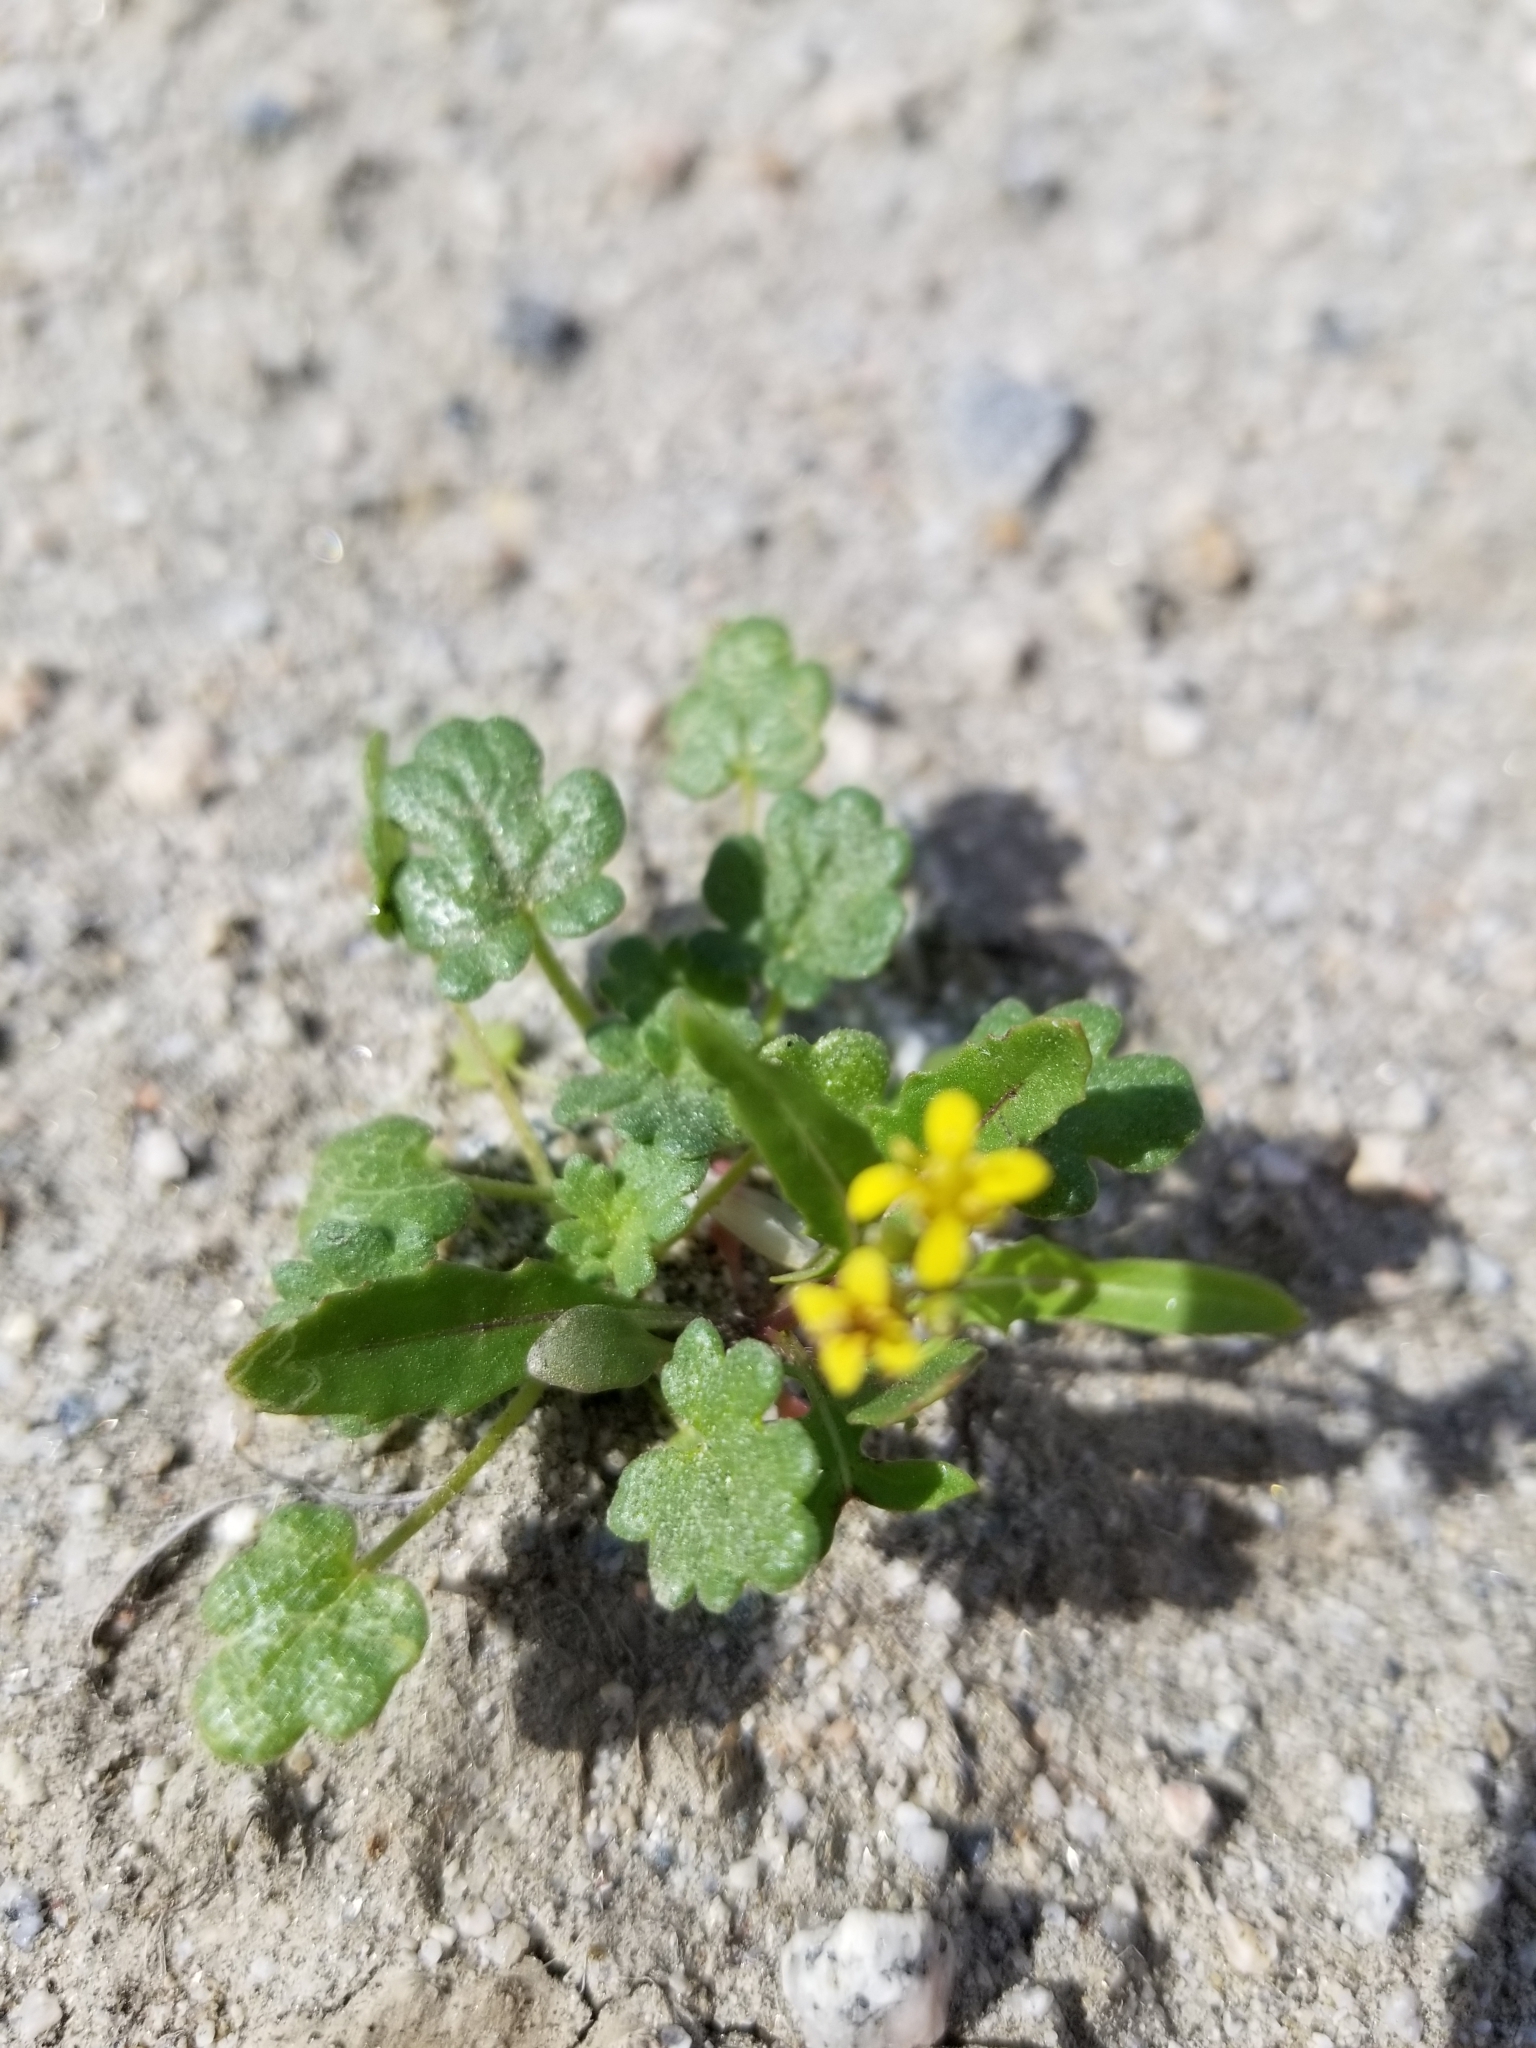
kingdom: Plantae
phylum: Tracheophyta
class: Magnoliopsida
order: Brassicales
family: Brassicaceae
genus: Lepidium
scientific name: Lepidium flavum
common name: Yellow pepperwort
